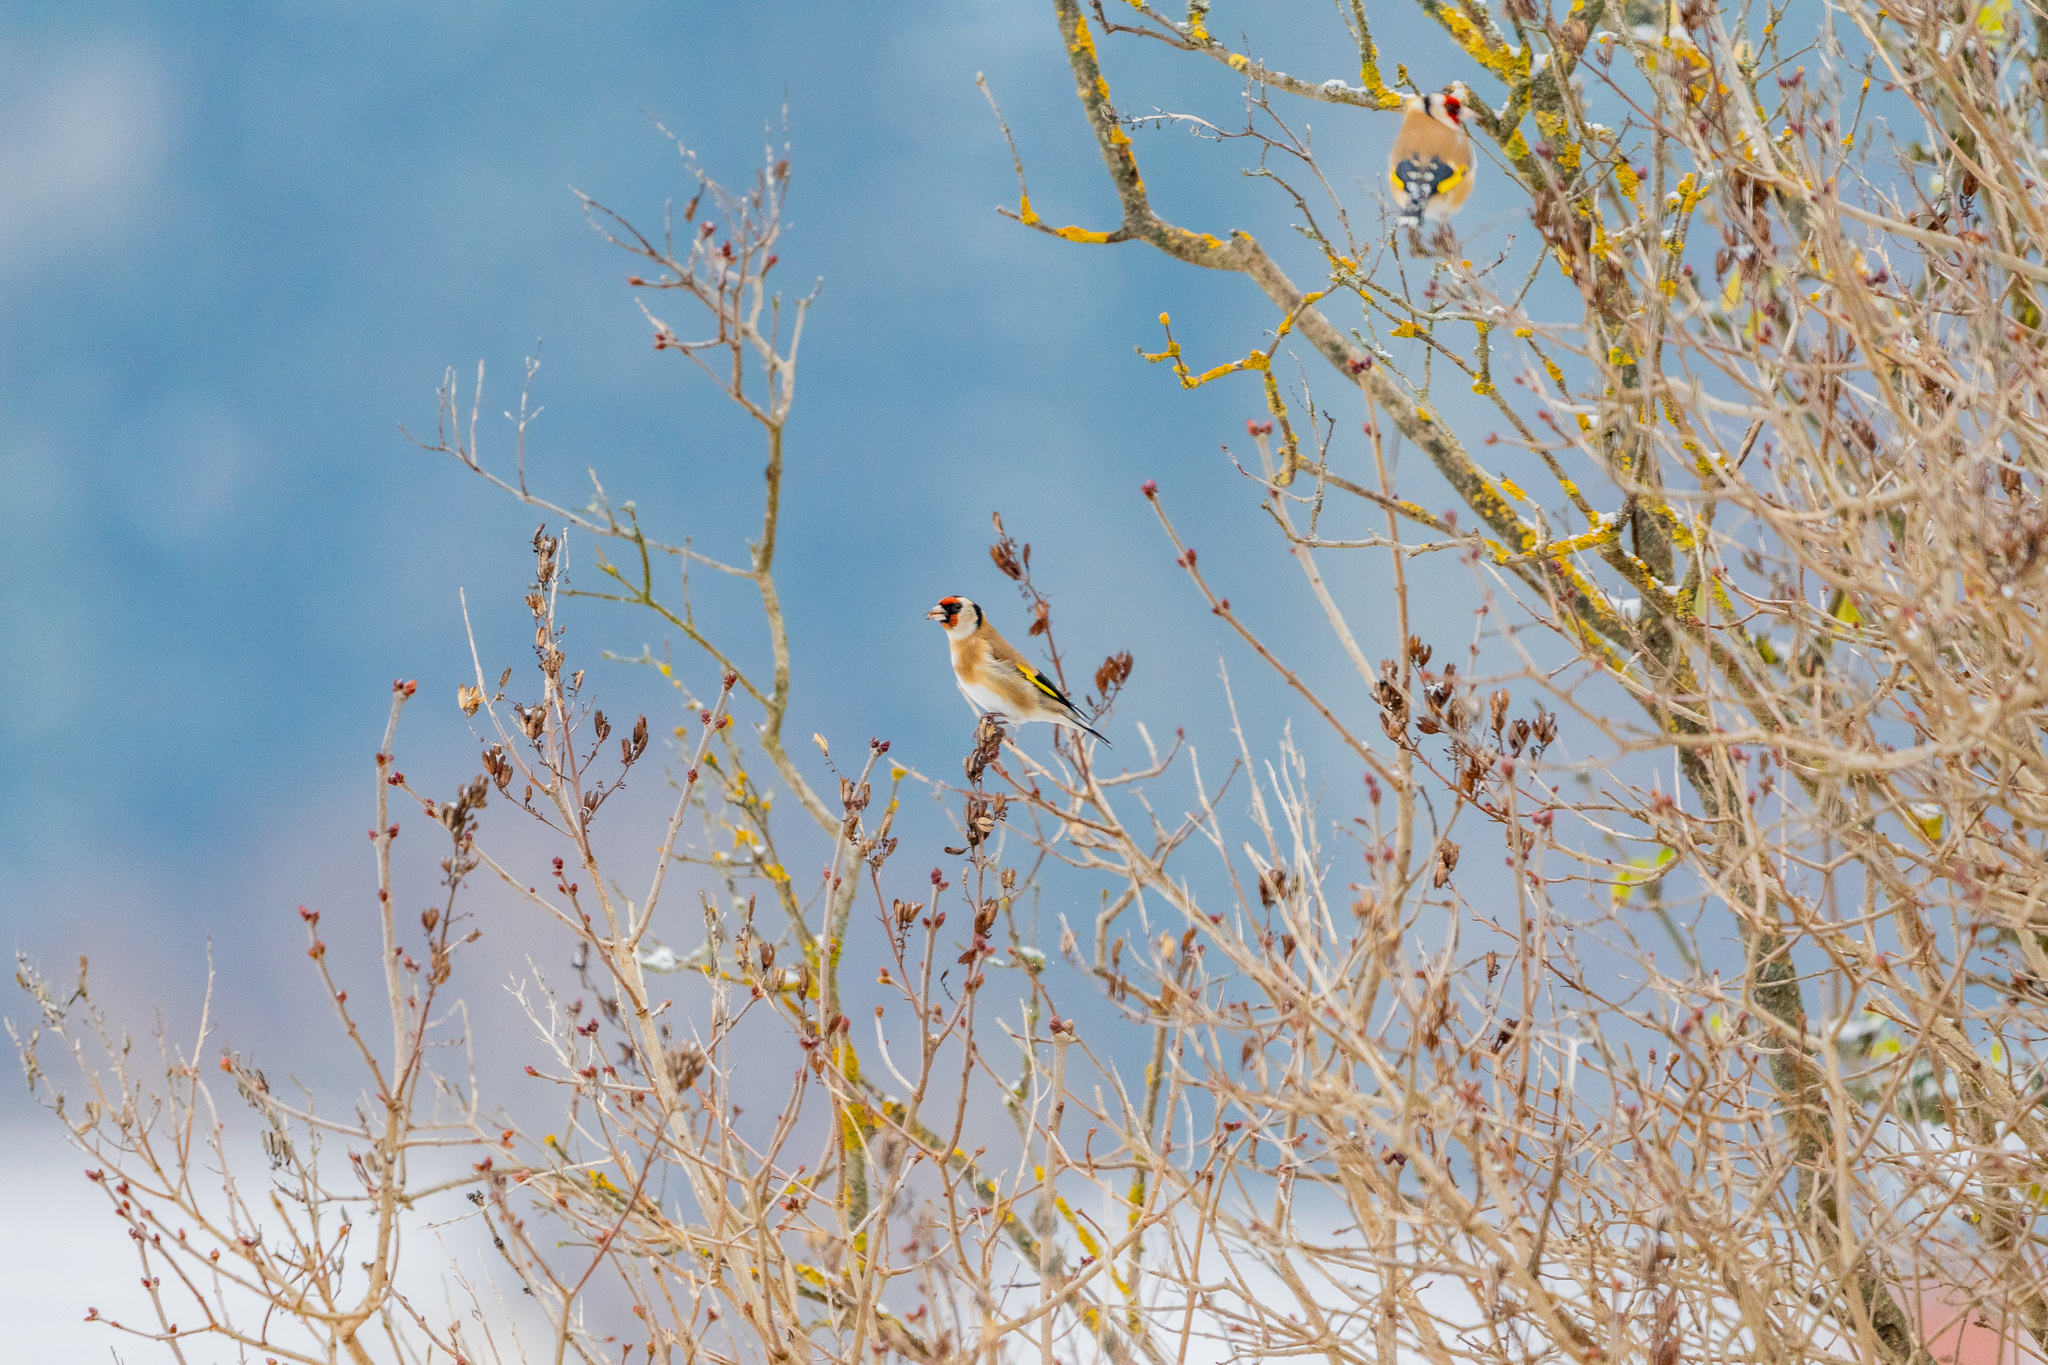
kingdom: Animalia
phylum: Chordata
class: Aves
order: Passeriformes
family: Fringillidae
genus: Carduelis
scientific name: Carduelis carduelis
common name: European goldfinch
